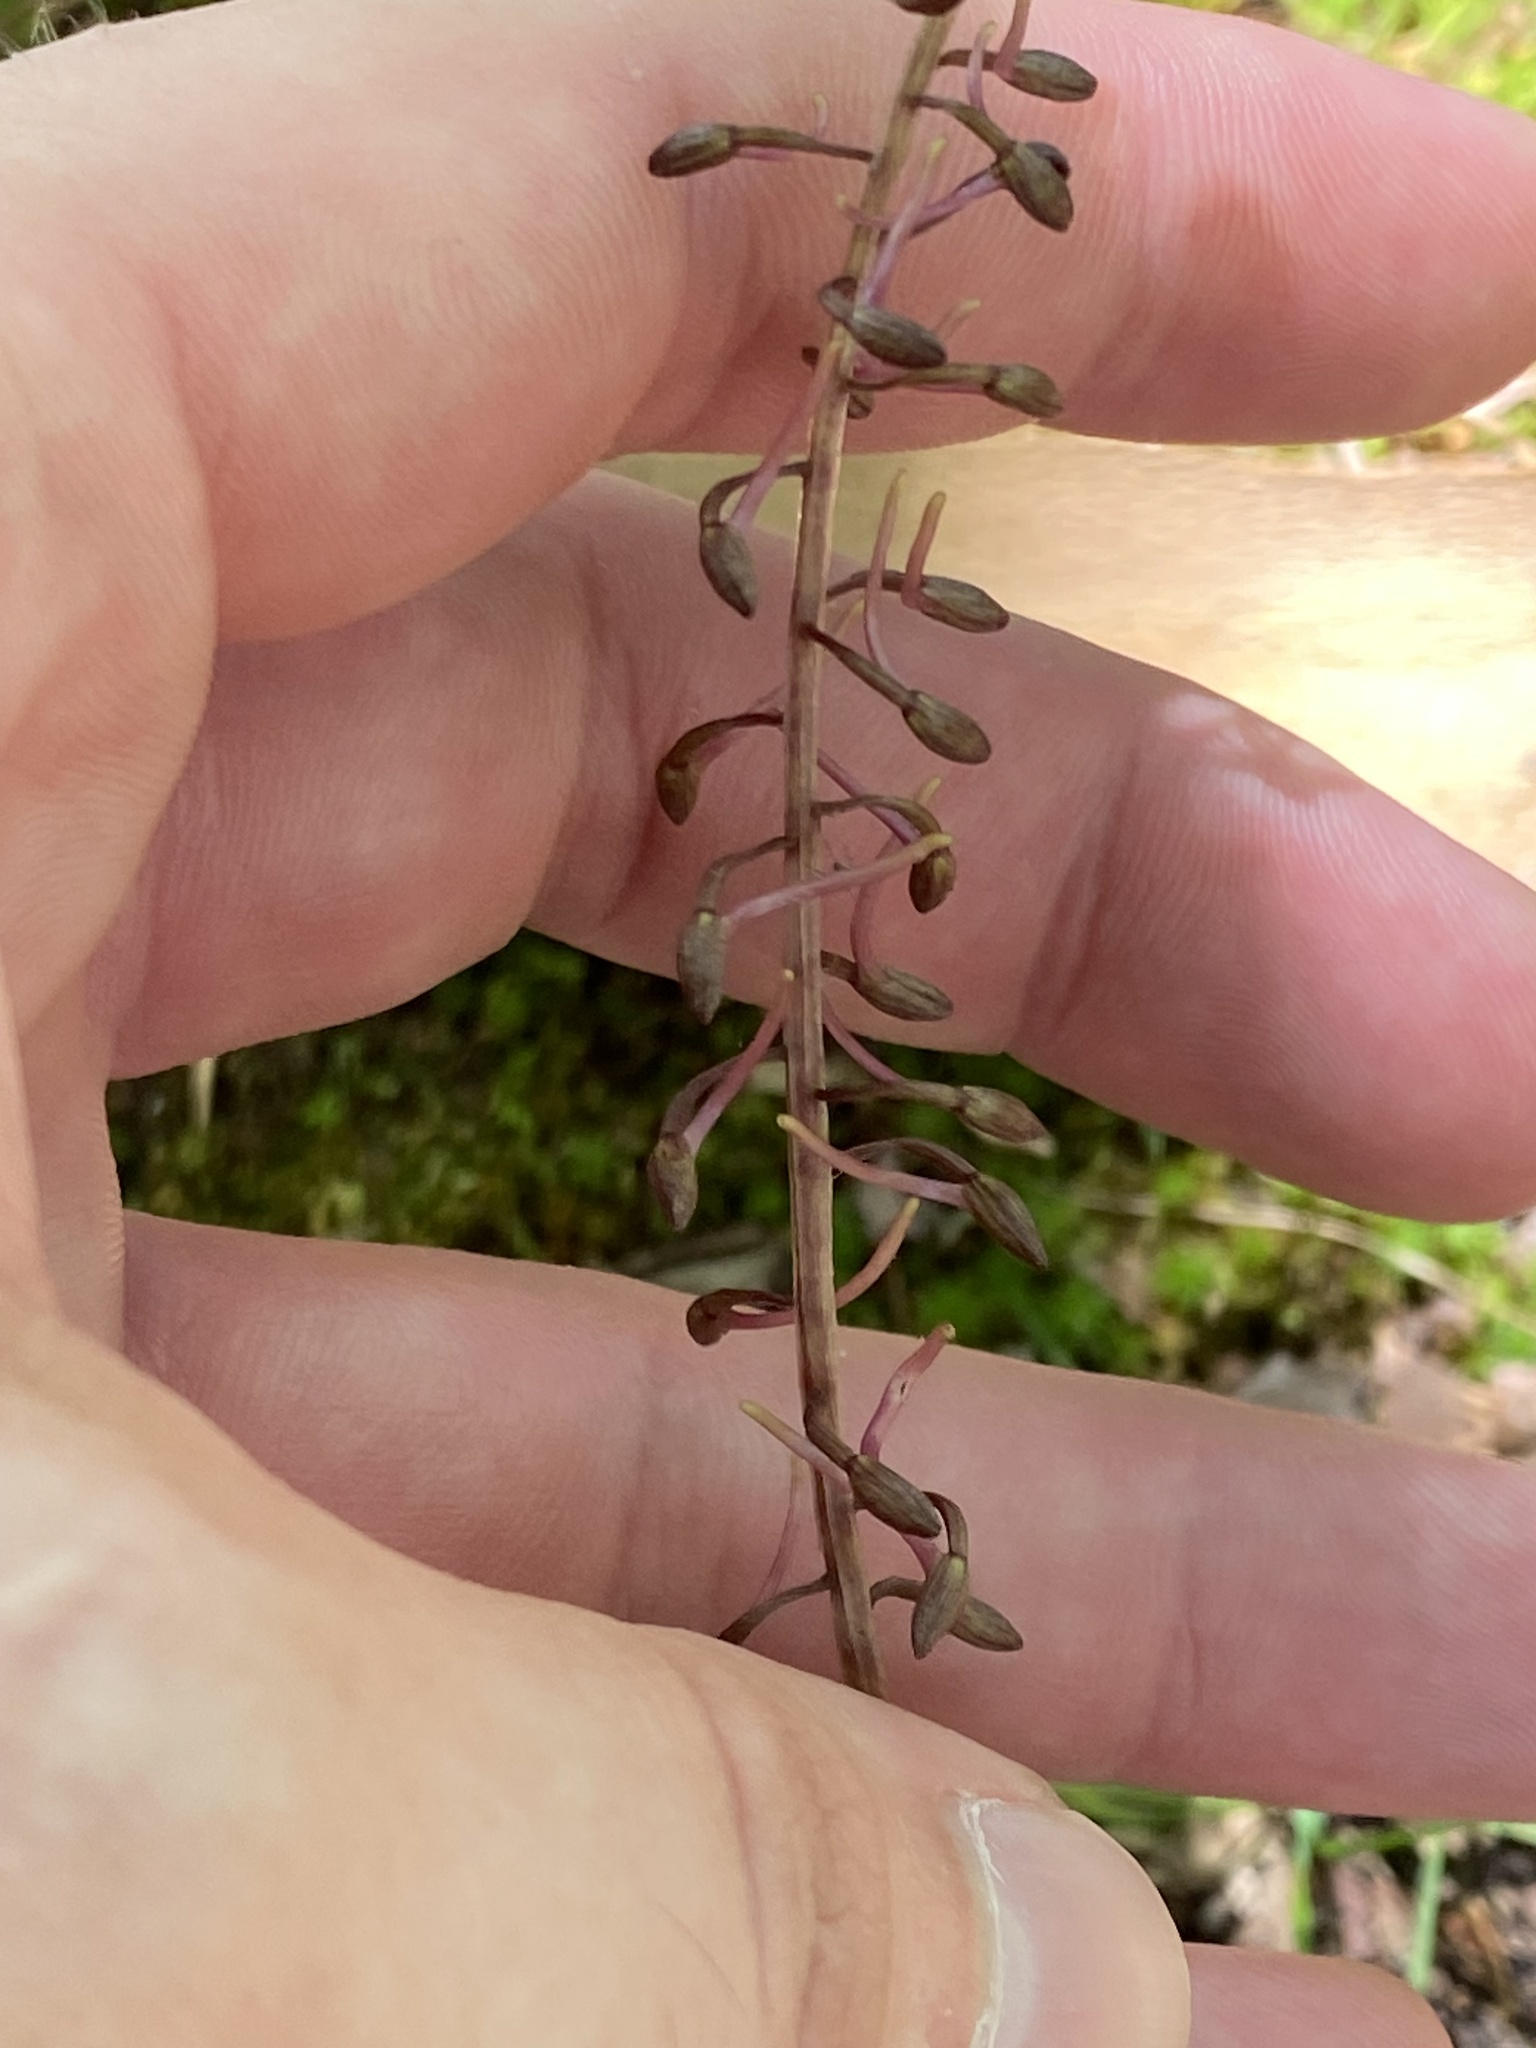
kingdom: Plantae
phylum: Tracheophyta
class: Liliopsida
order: Asparagales
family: Orchidaceae
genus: Tipularia
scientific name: Tipularia discolor
